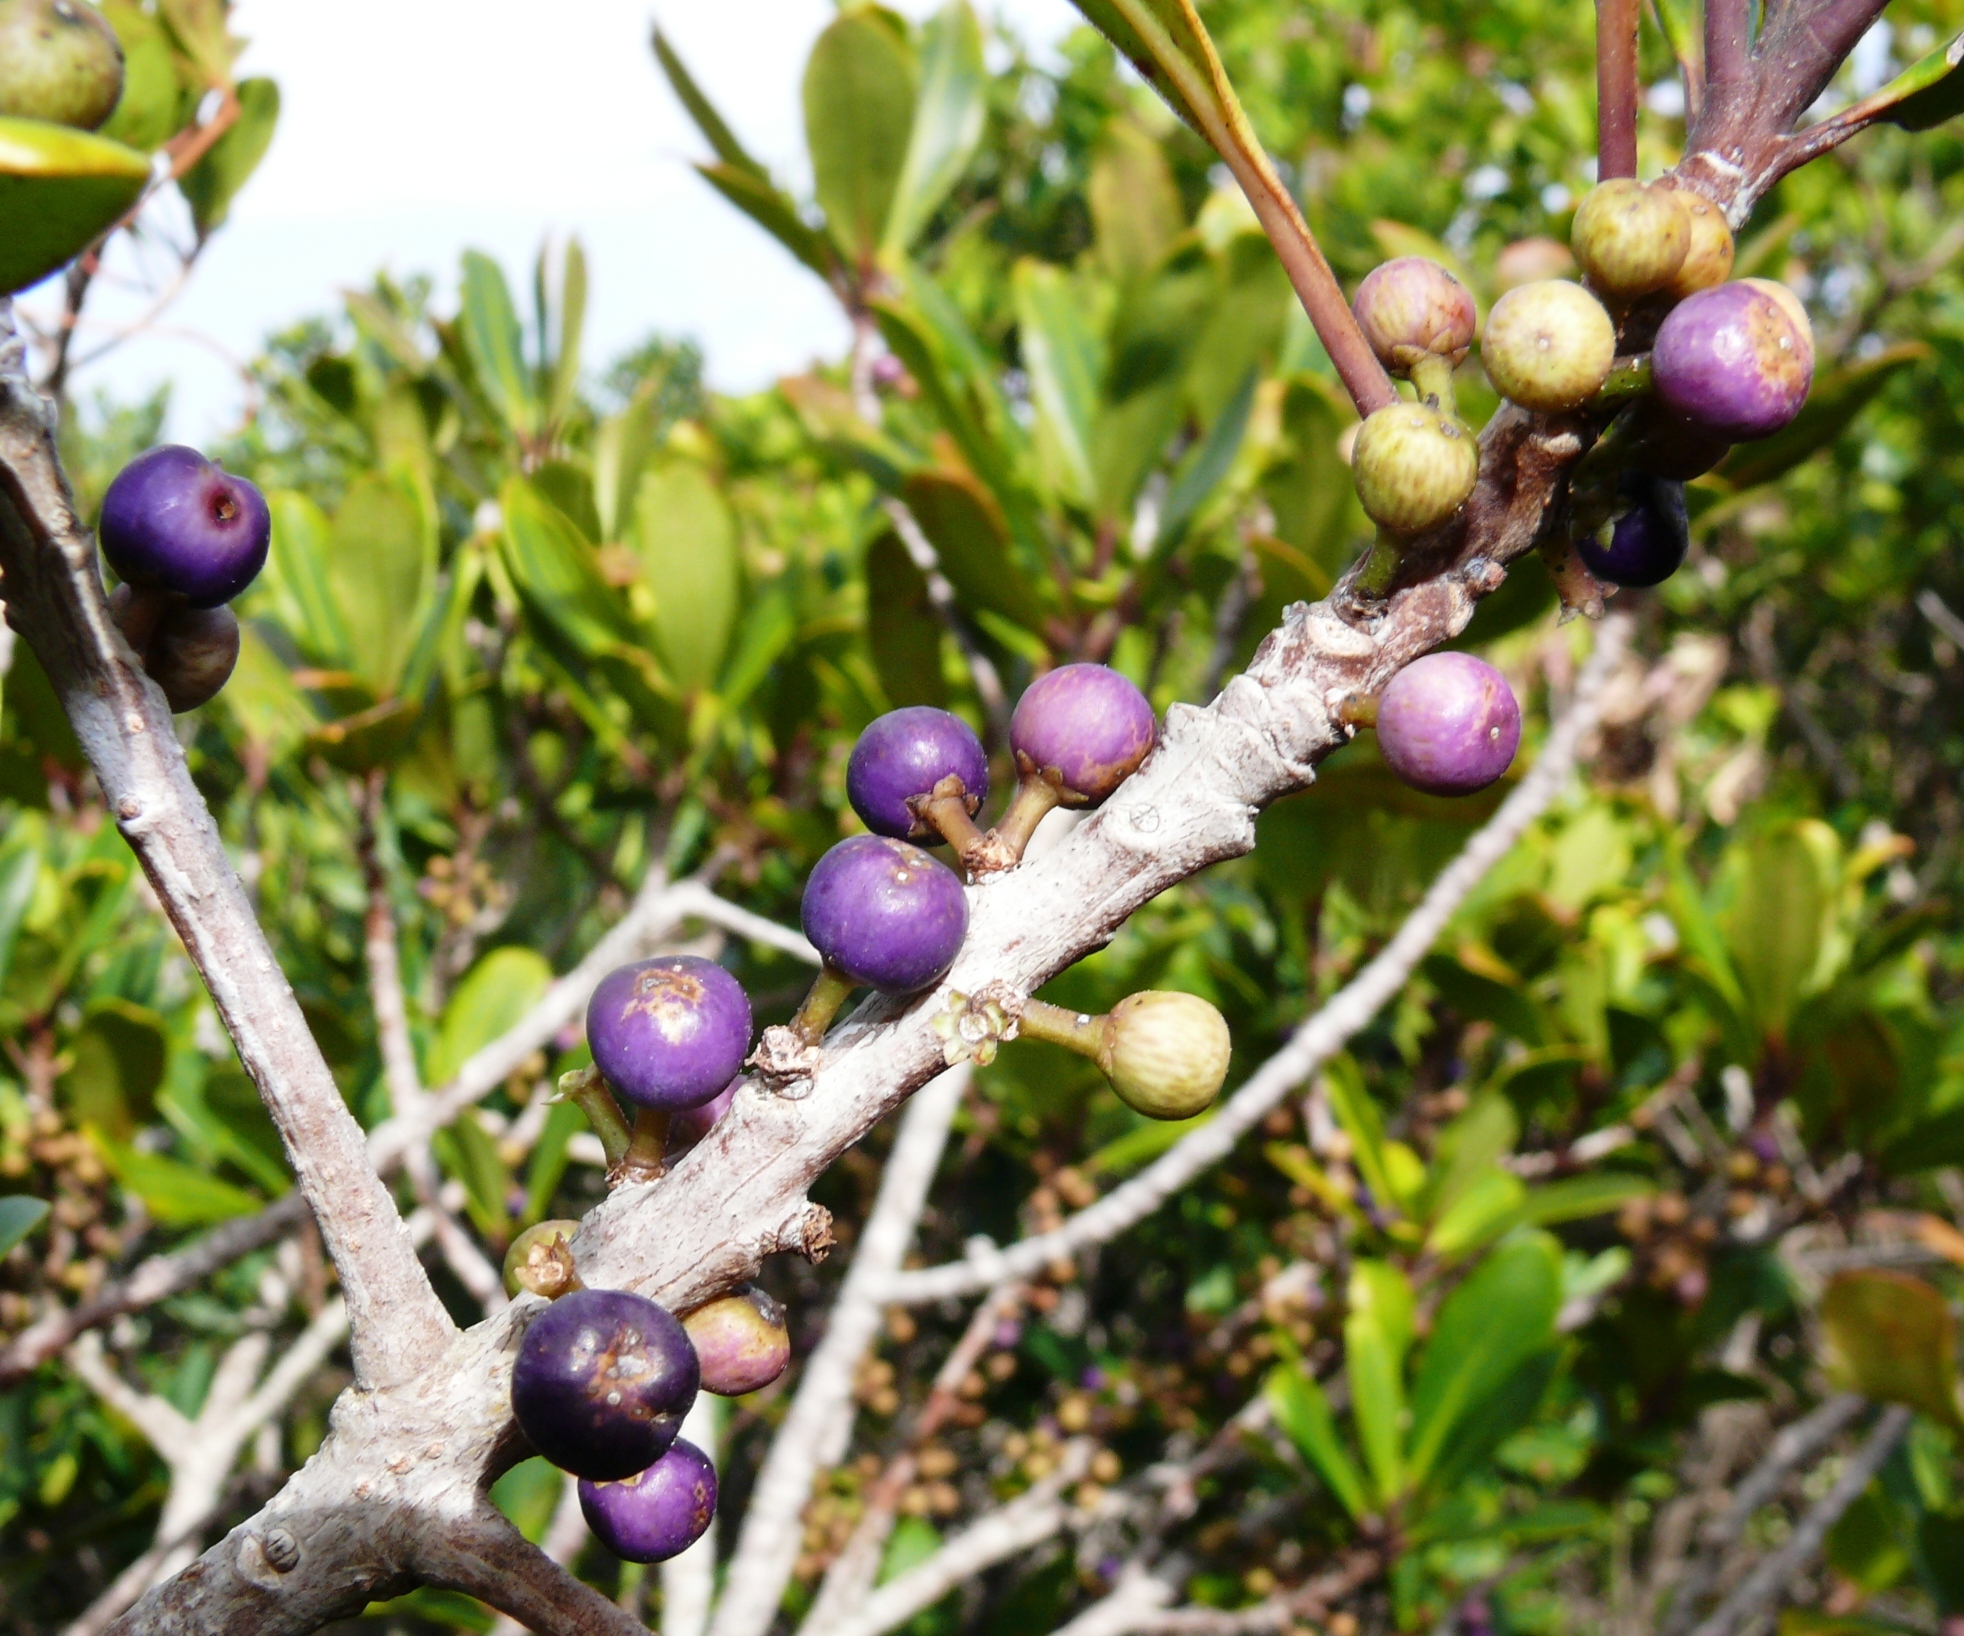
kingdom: Plantae
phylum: Tracheophyta
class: Magnoliopsida
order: Ericales
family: Primulaceae
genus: Myrsine
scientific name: Myrsine melanophloeos
